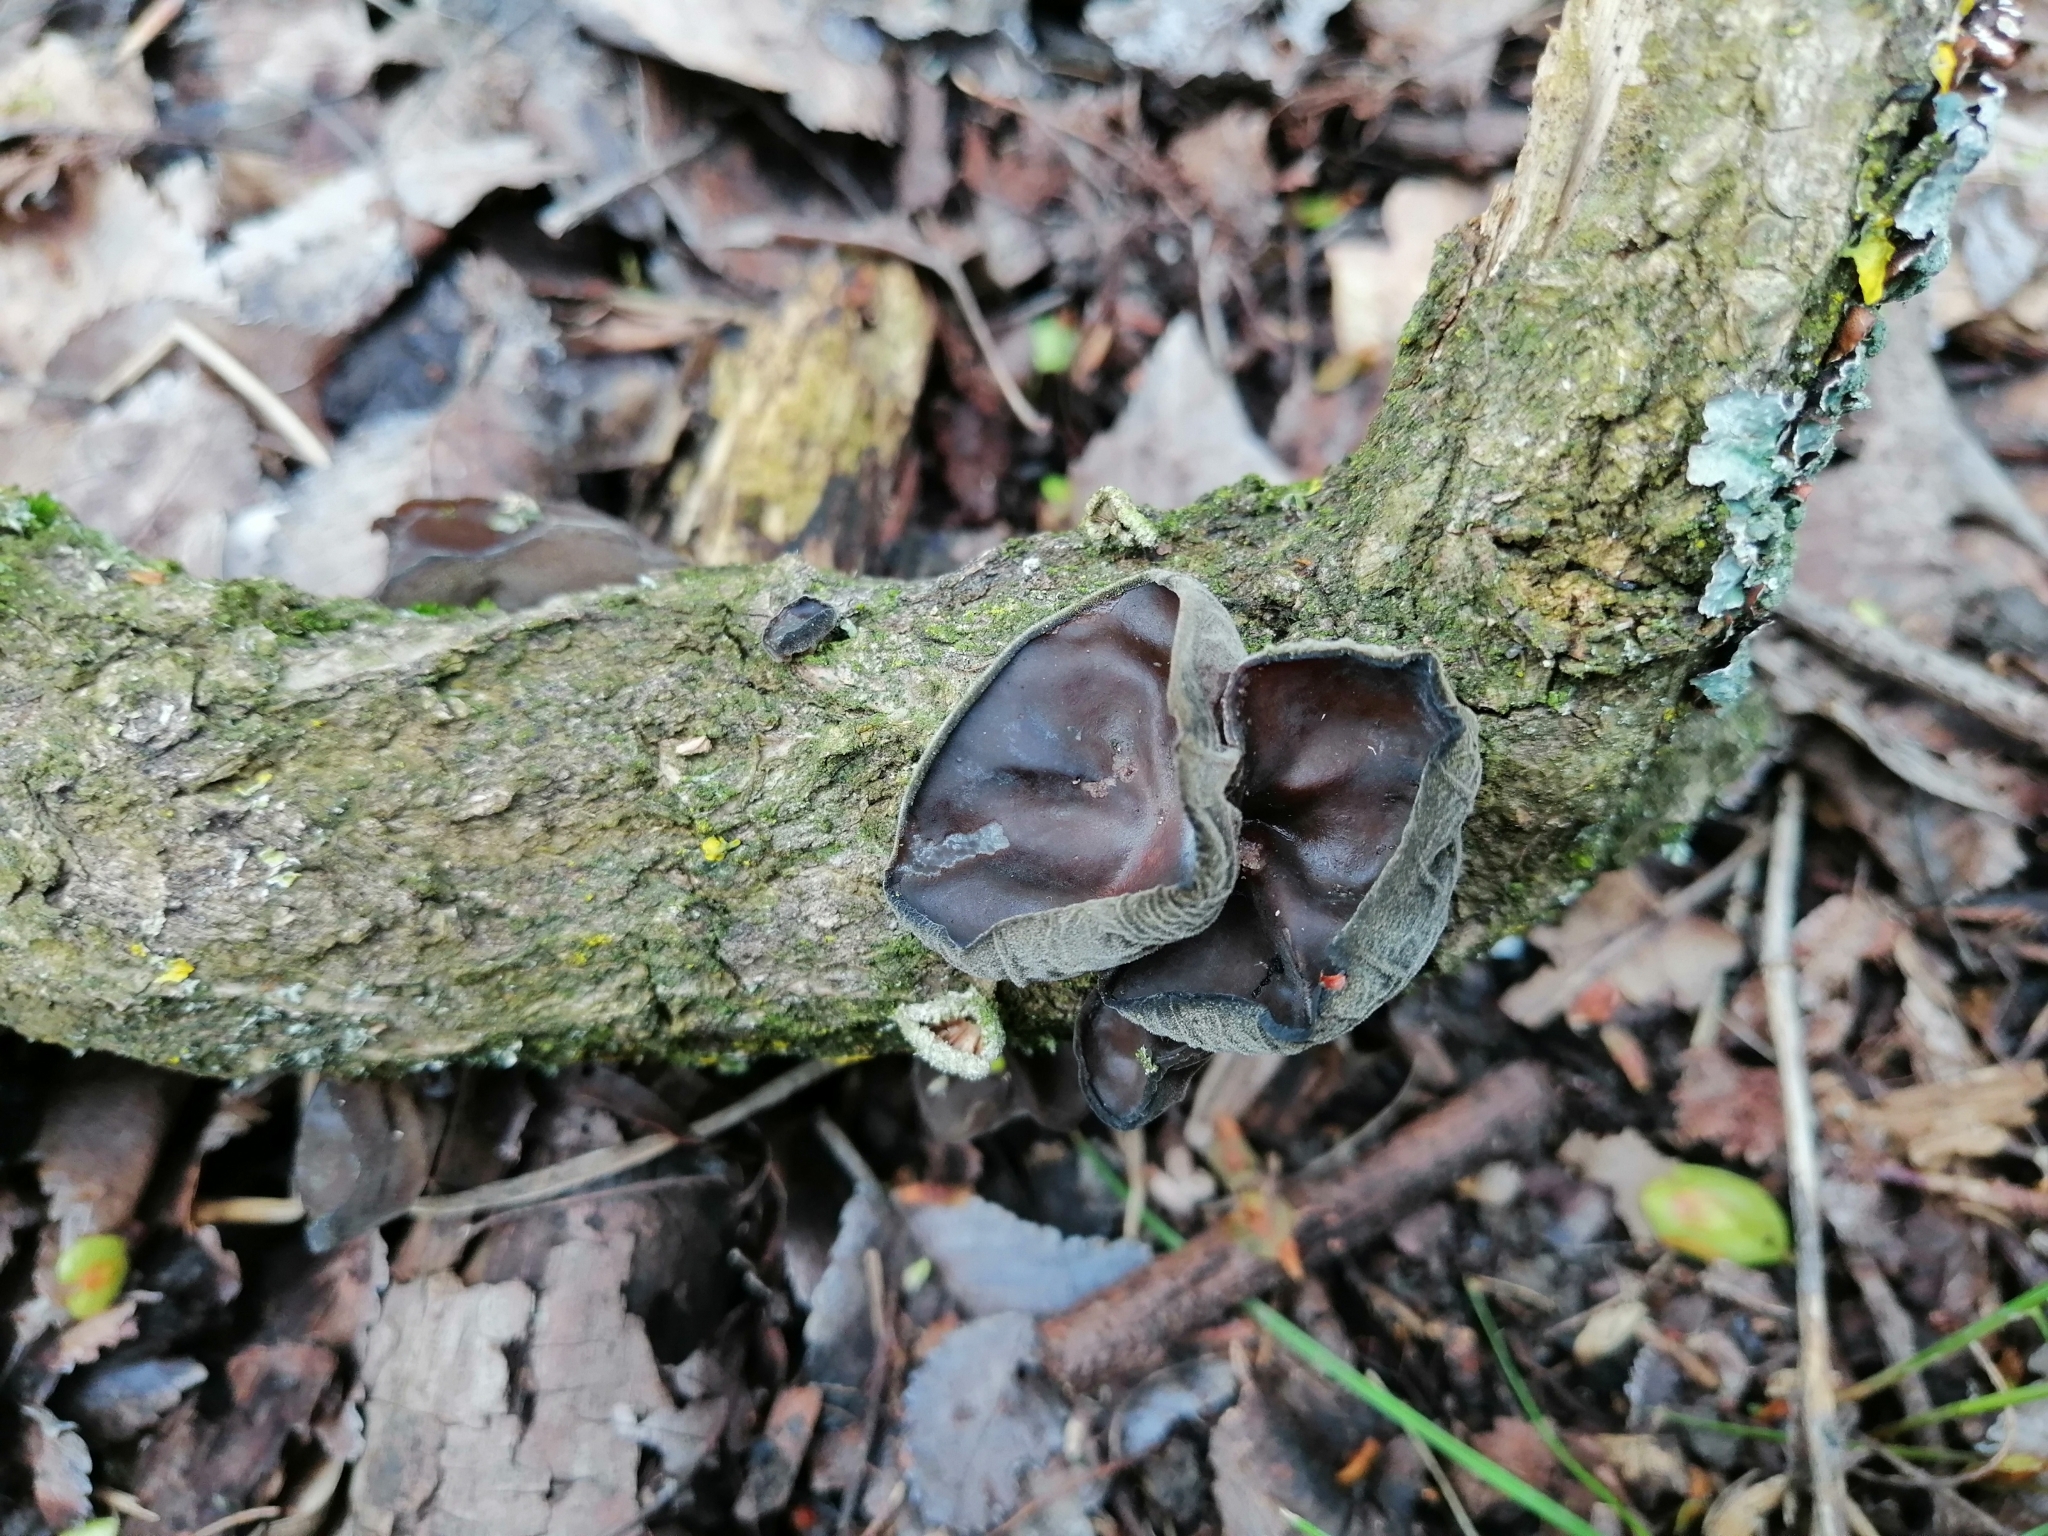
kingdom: Fungi
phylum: Basidiomycota
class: Agaricomycetes
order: Auriculariales
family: Auriculariaceae
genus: Auricularia
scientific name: Auricularia auricula-judae
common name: Jelly ear
